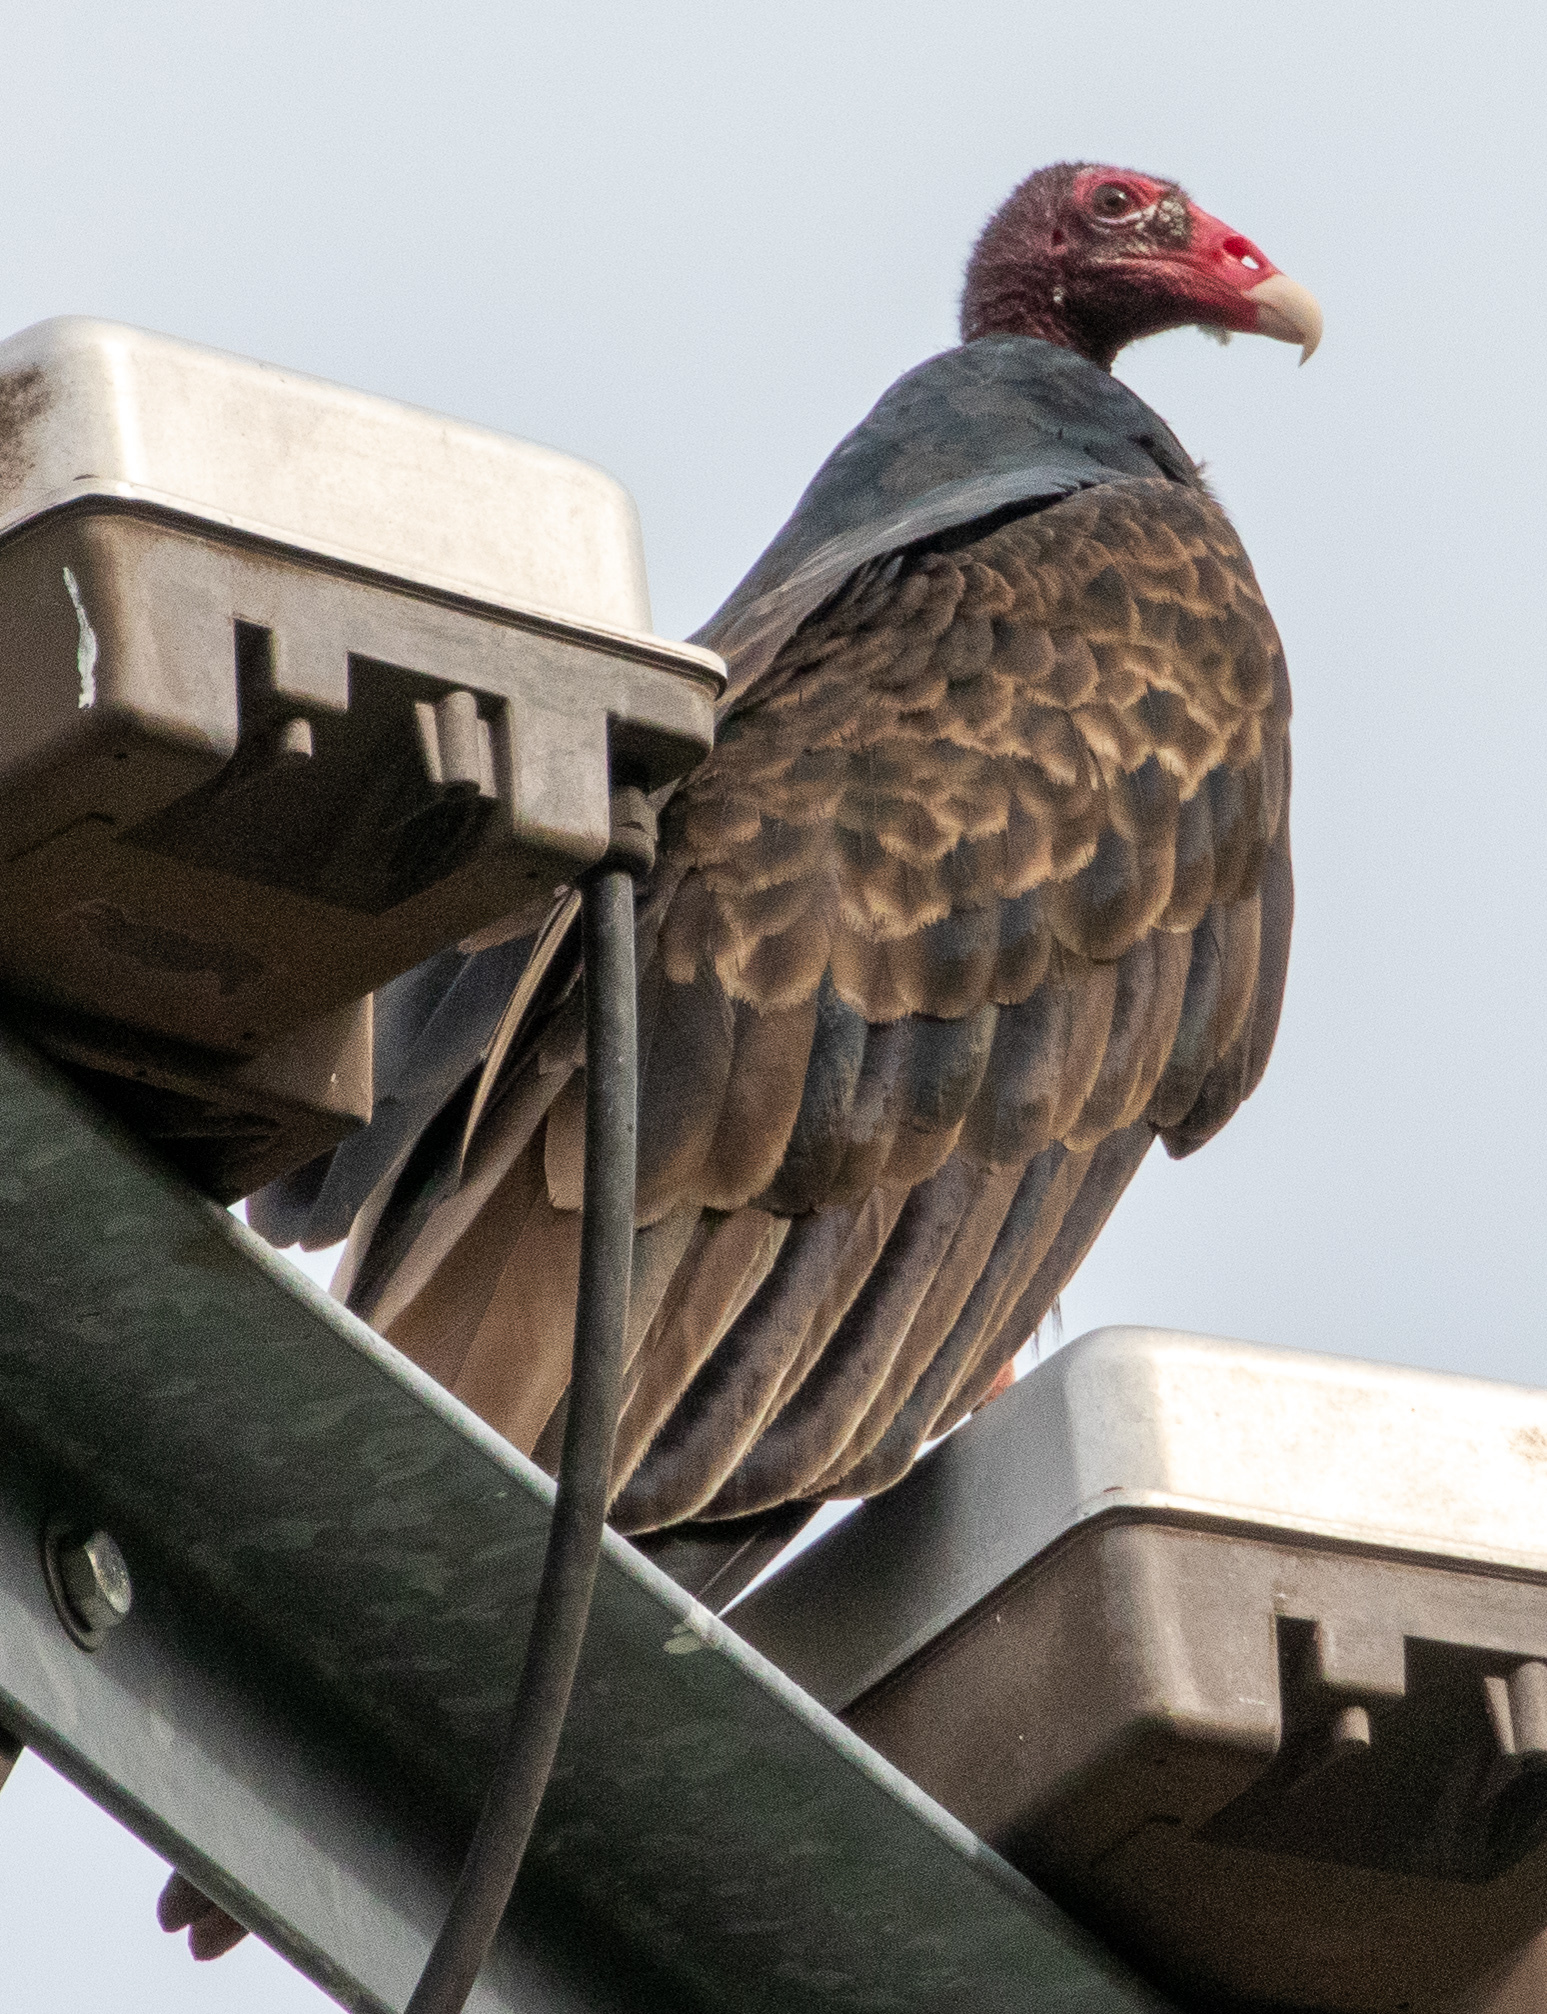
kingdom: Animalia
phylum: Chordata
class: Aves
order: Accipitriformes
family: Cathartidae
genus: Cathartes
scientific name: Cathartes aura
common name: Turkey vulture
